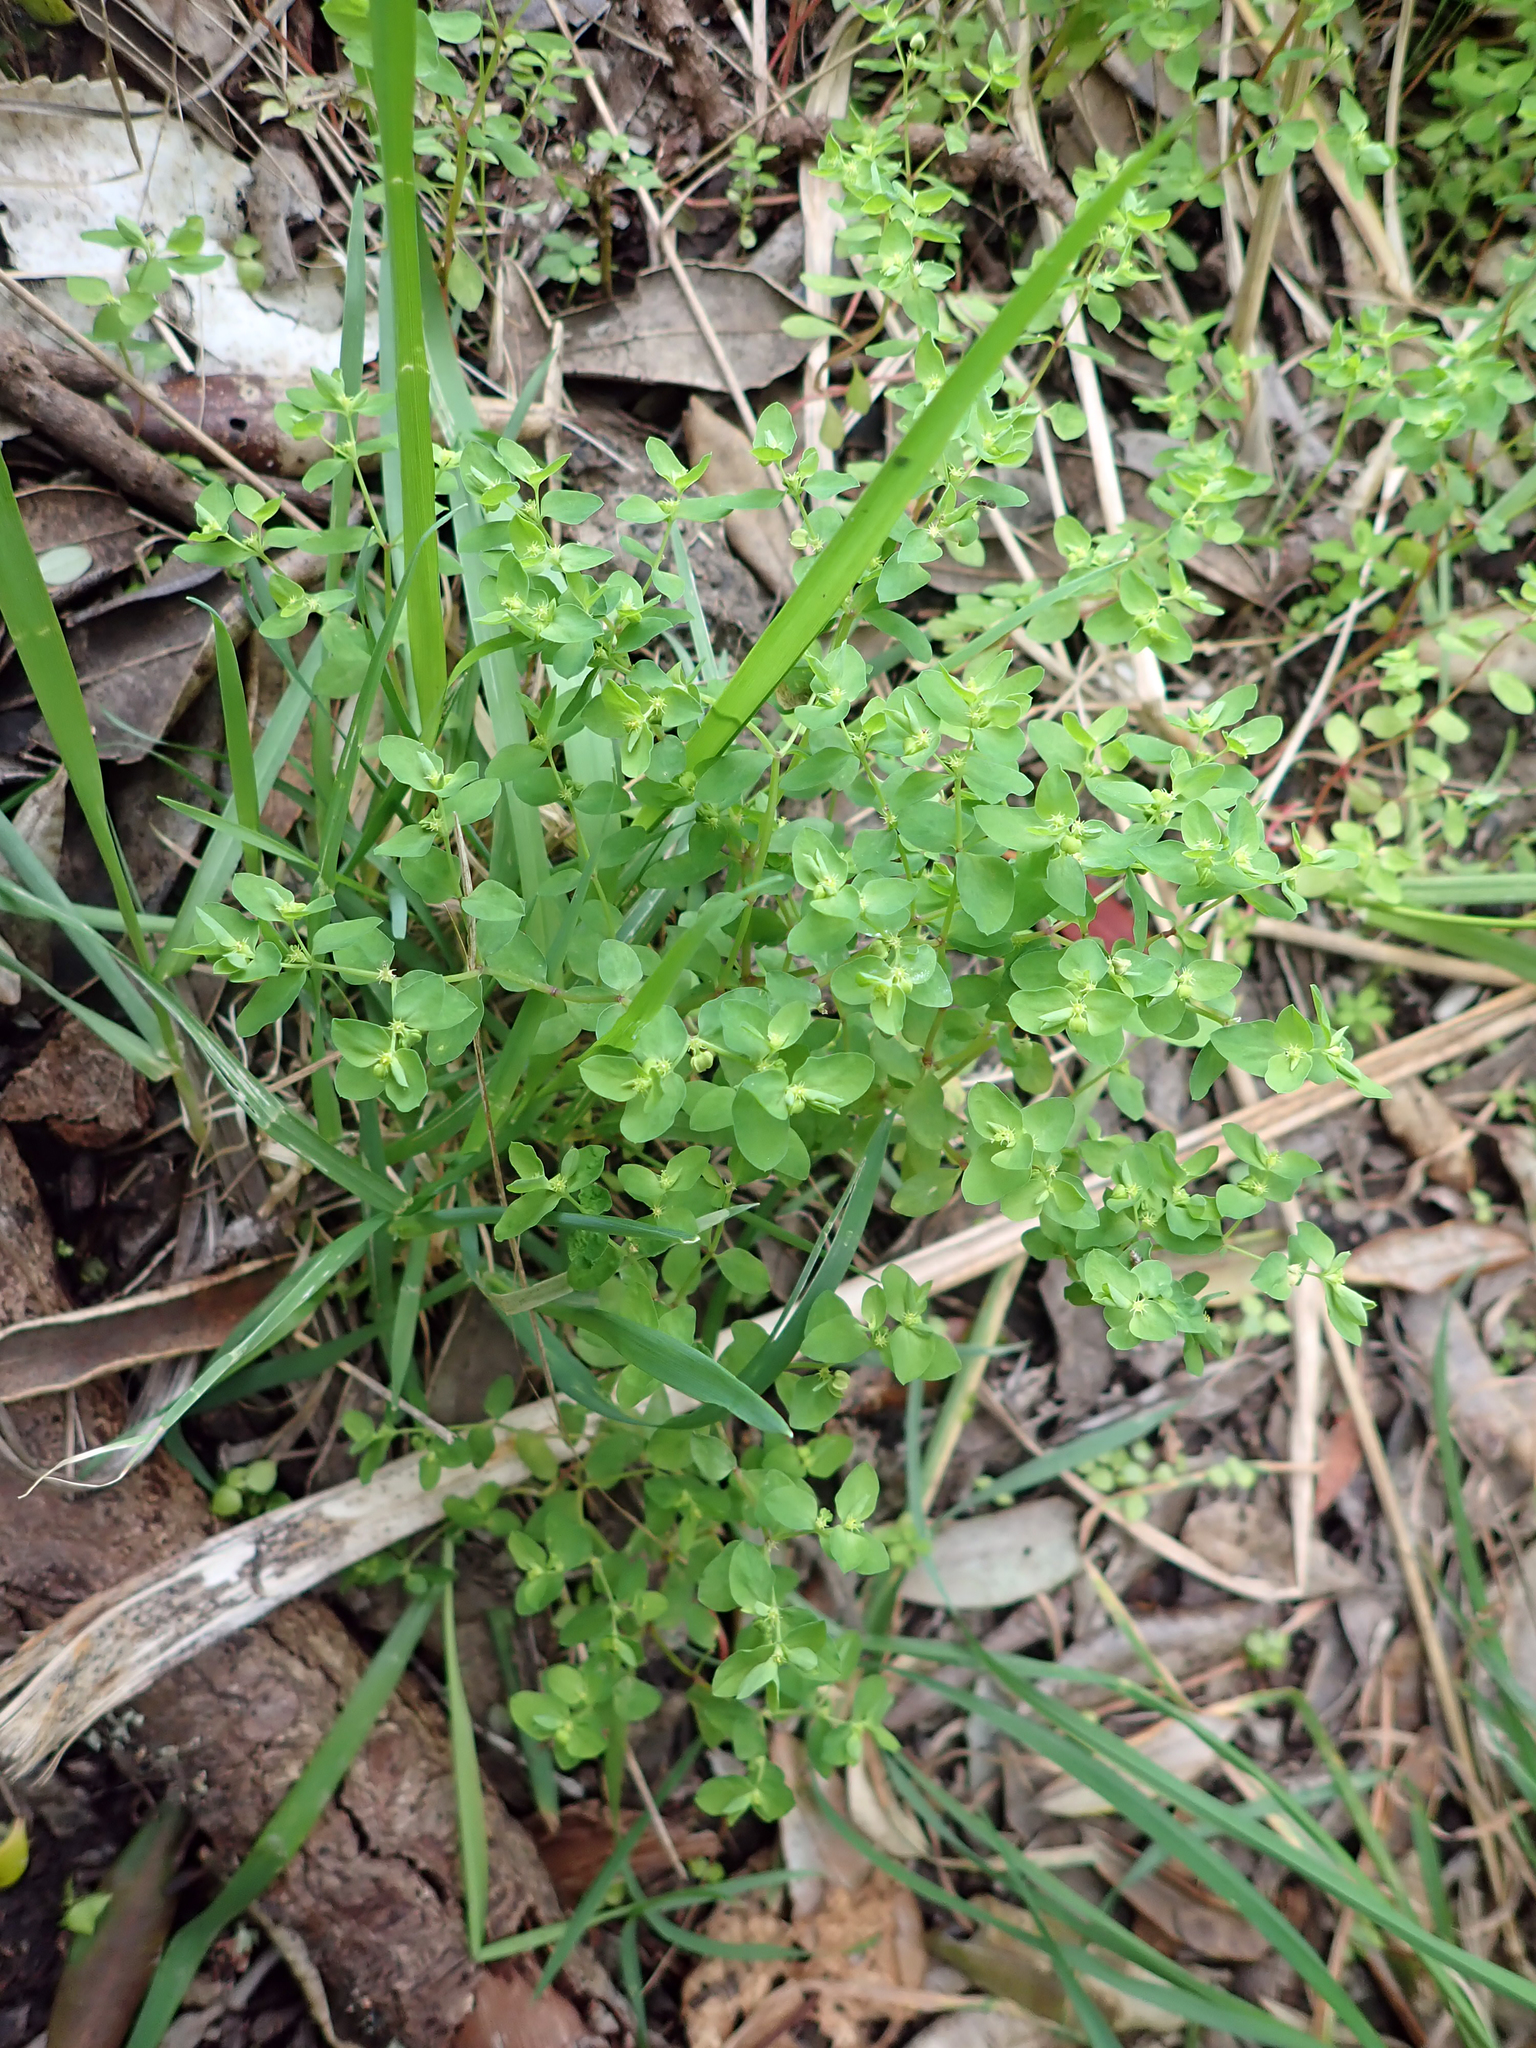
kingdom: Plantae
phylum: Tracheophyta
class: Magnoliopsida
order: Malpighiales
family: Euphorbiaceae
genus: Euphorbia
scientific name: Euphorbia peplus
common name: Petty spurge
